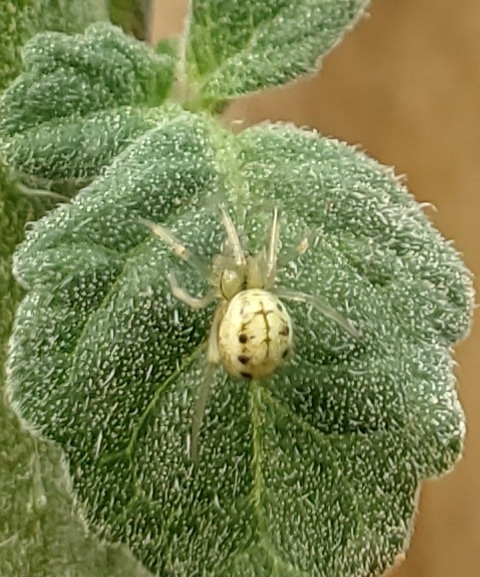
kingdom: Animalia
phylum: Arthropoda
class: Arachnida
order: Araneae
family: Theridiidae
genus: Enoplognatha
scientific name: Enoplognatha ovata
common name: Common candy-striped spider
